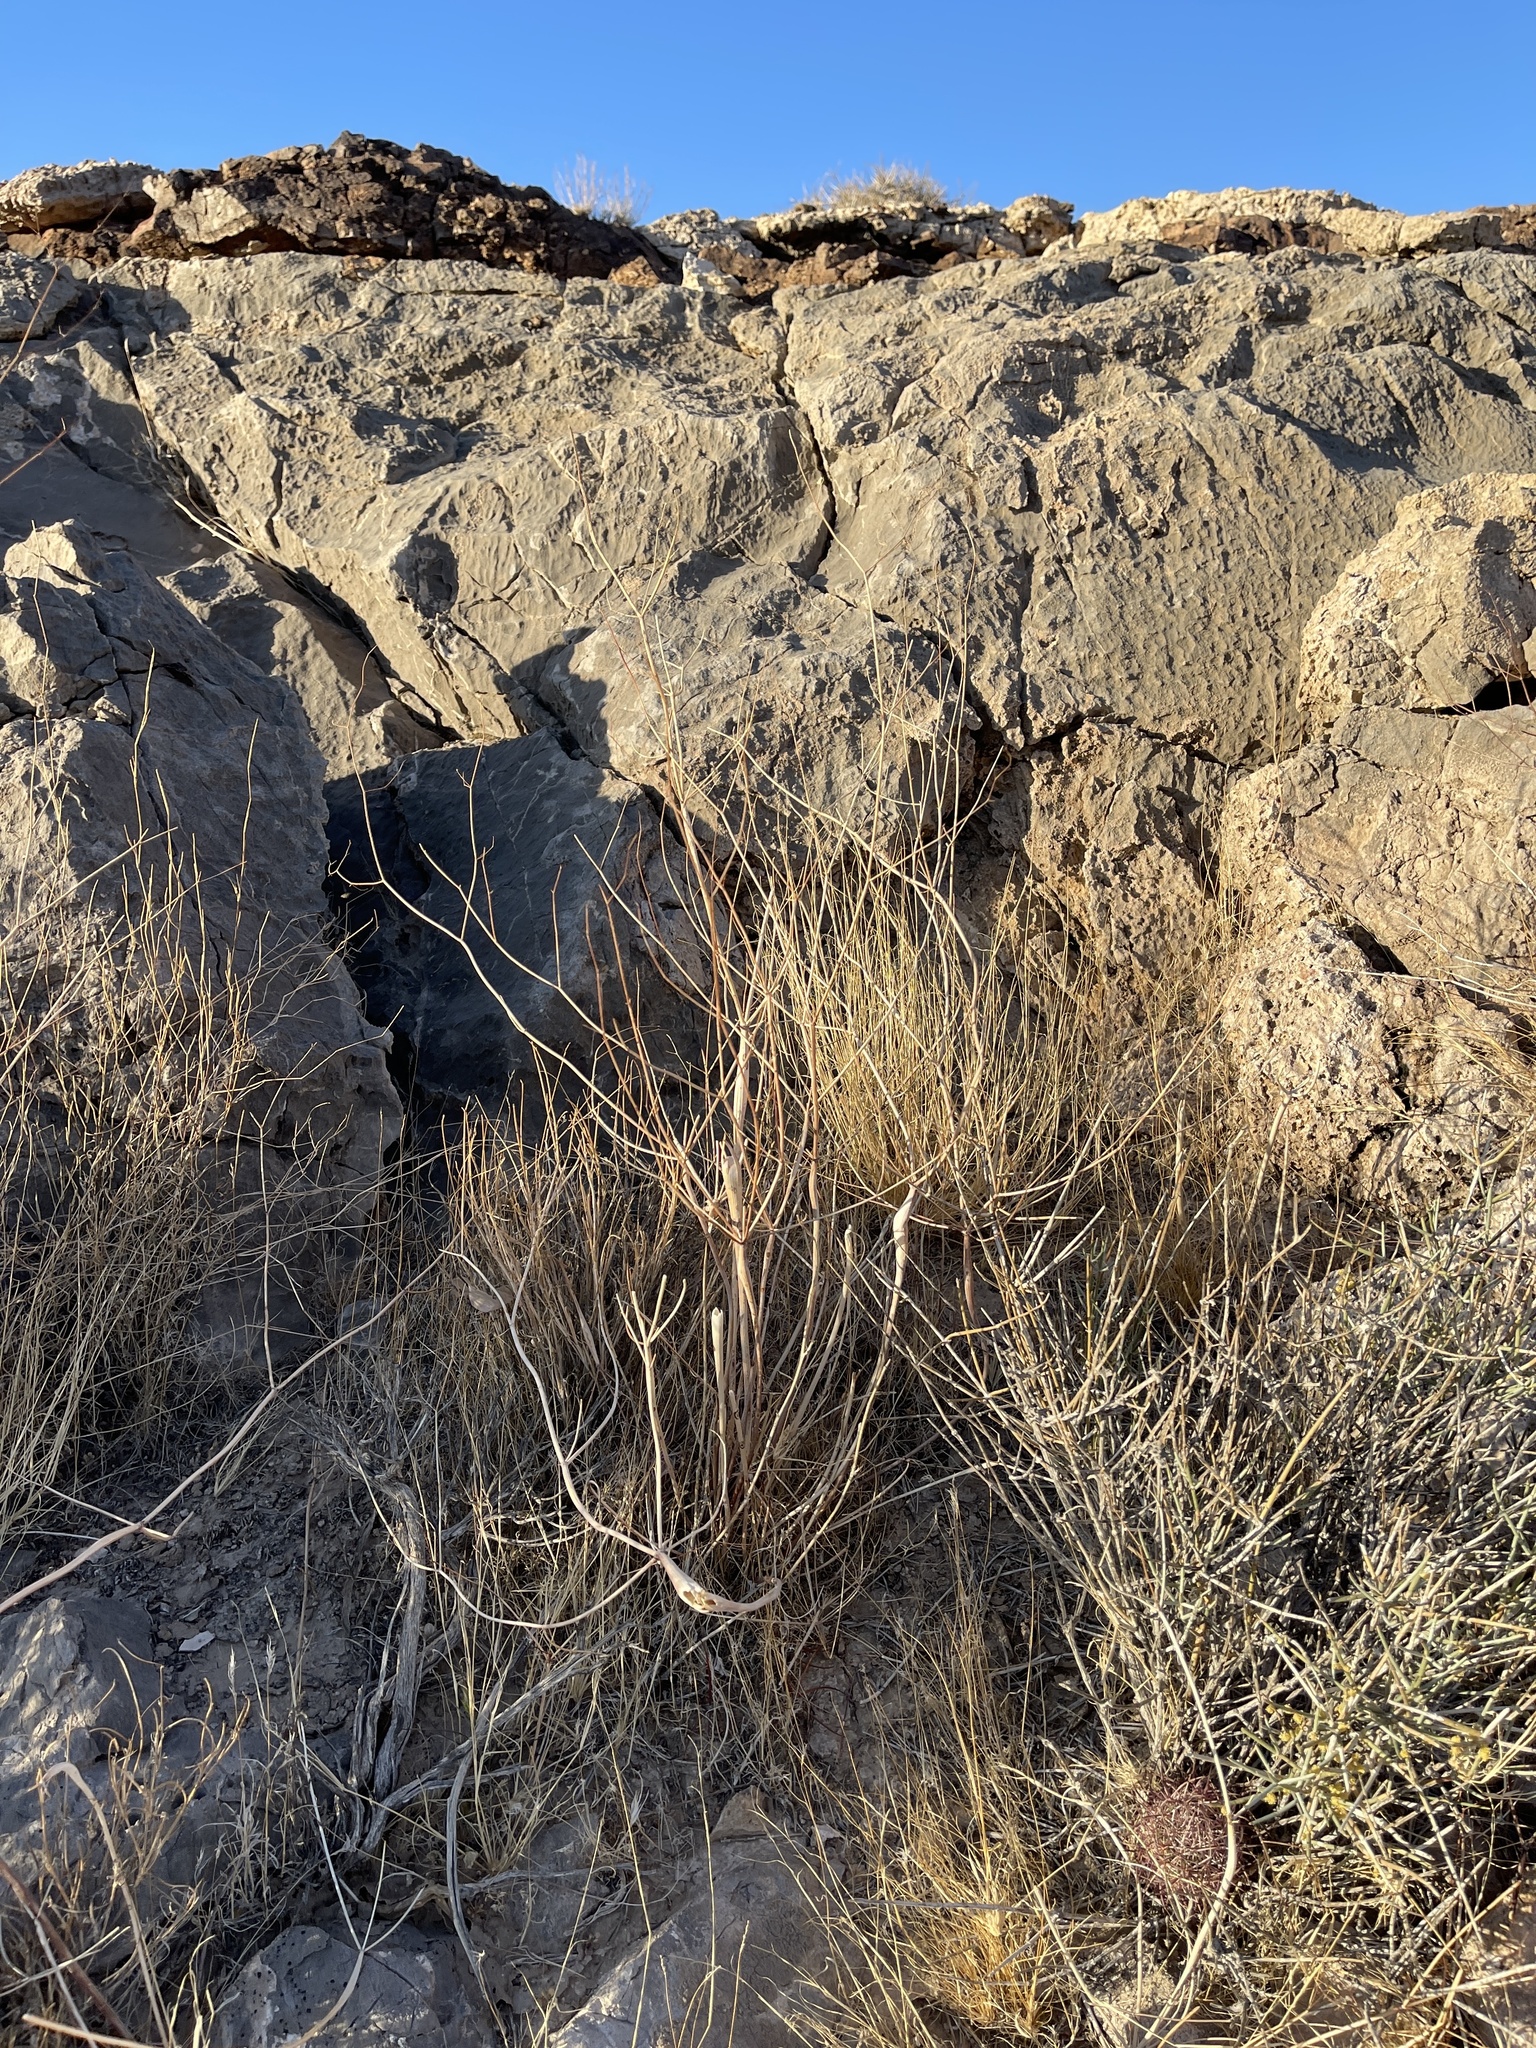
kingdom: Plantae
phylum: Tracheophyta
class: Gnetopsida
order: Ephedrales
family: Ephedraceae
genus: Ephedra
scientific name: Ephedra nevadensis
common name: Gray ephedra
